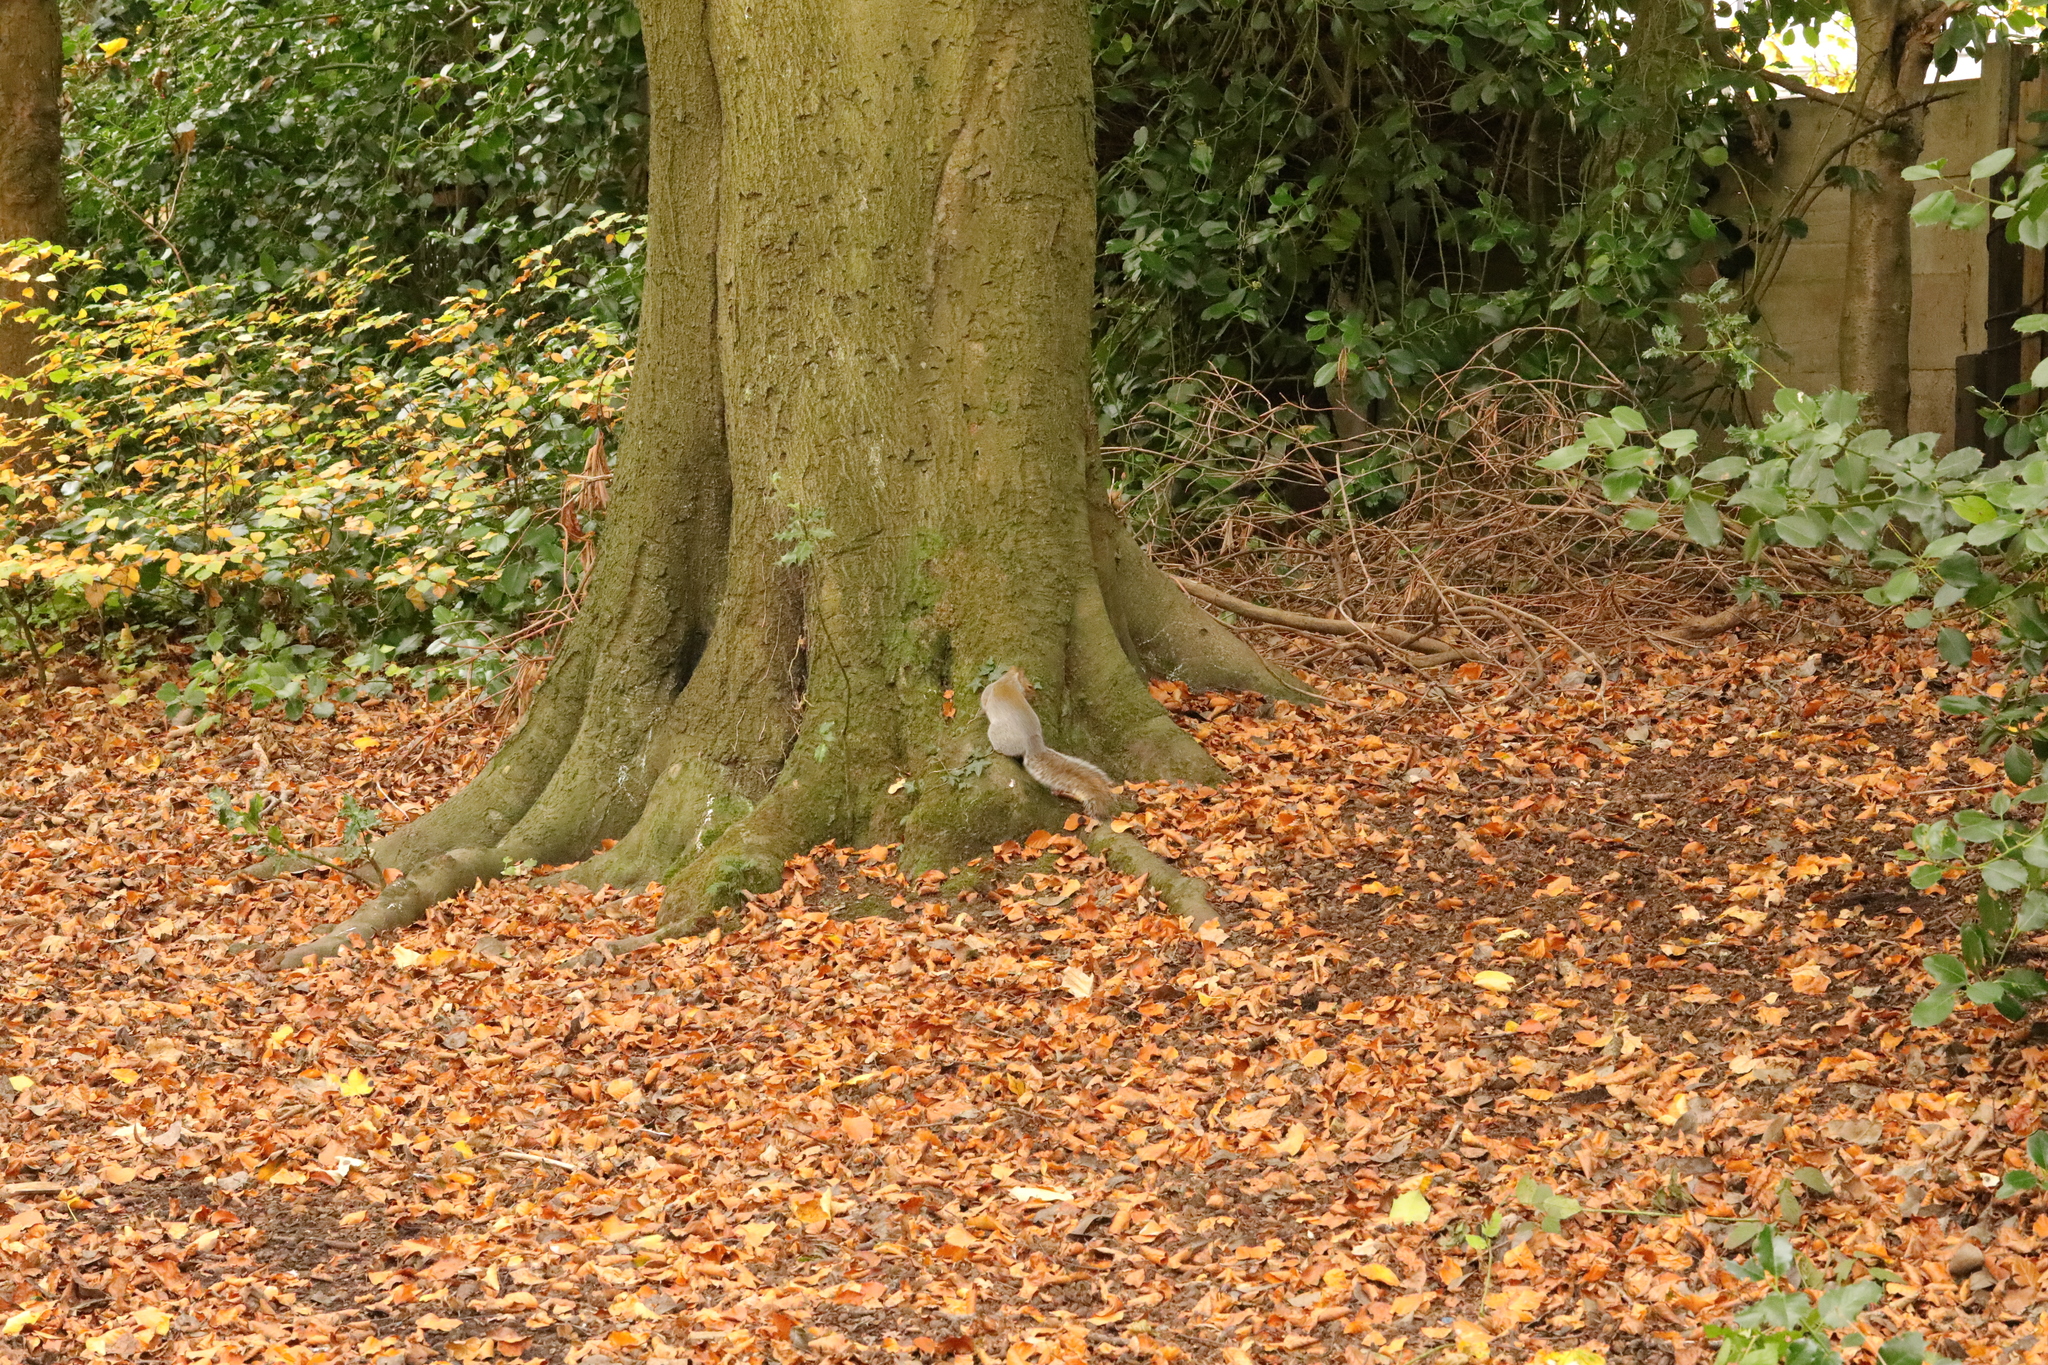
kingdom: Animalia
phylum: Chordata
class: Mammalia
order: Rodentia
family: Sciuridae
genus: Sciurus
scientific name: Sciurus carolinensis
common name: Eastern gray squirrel
